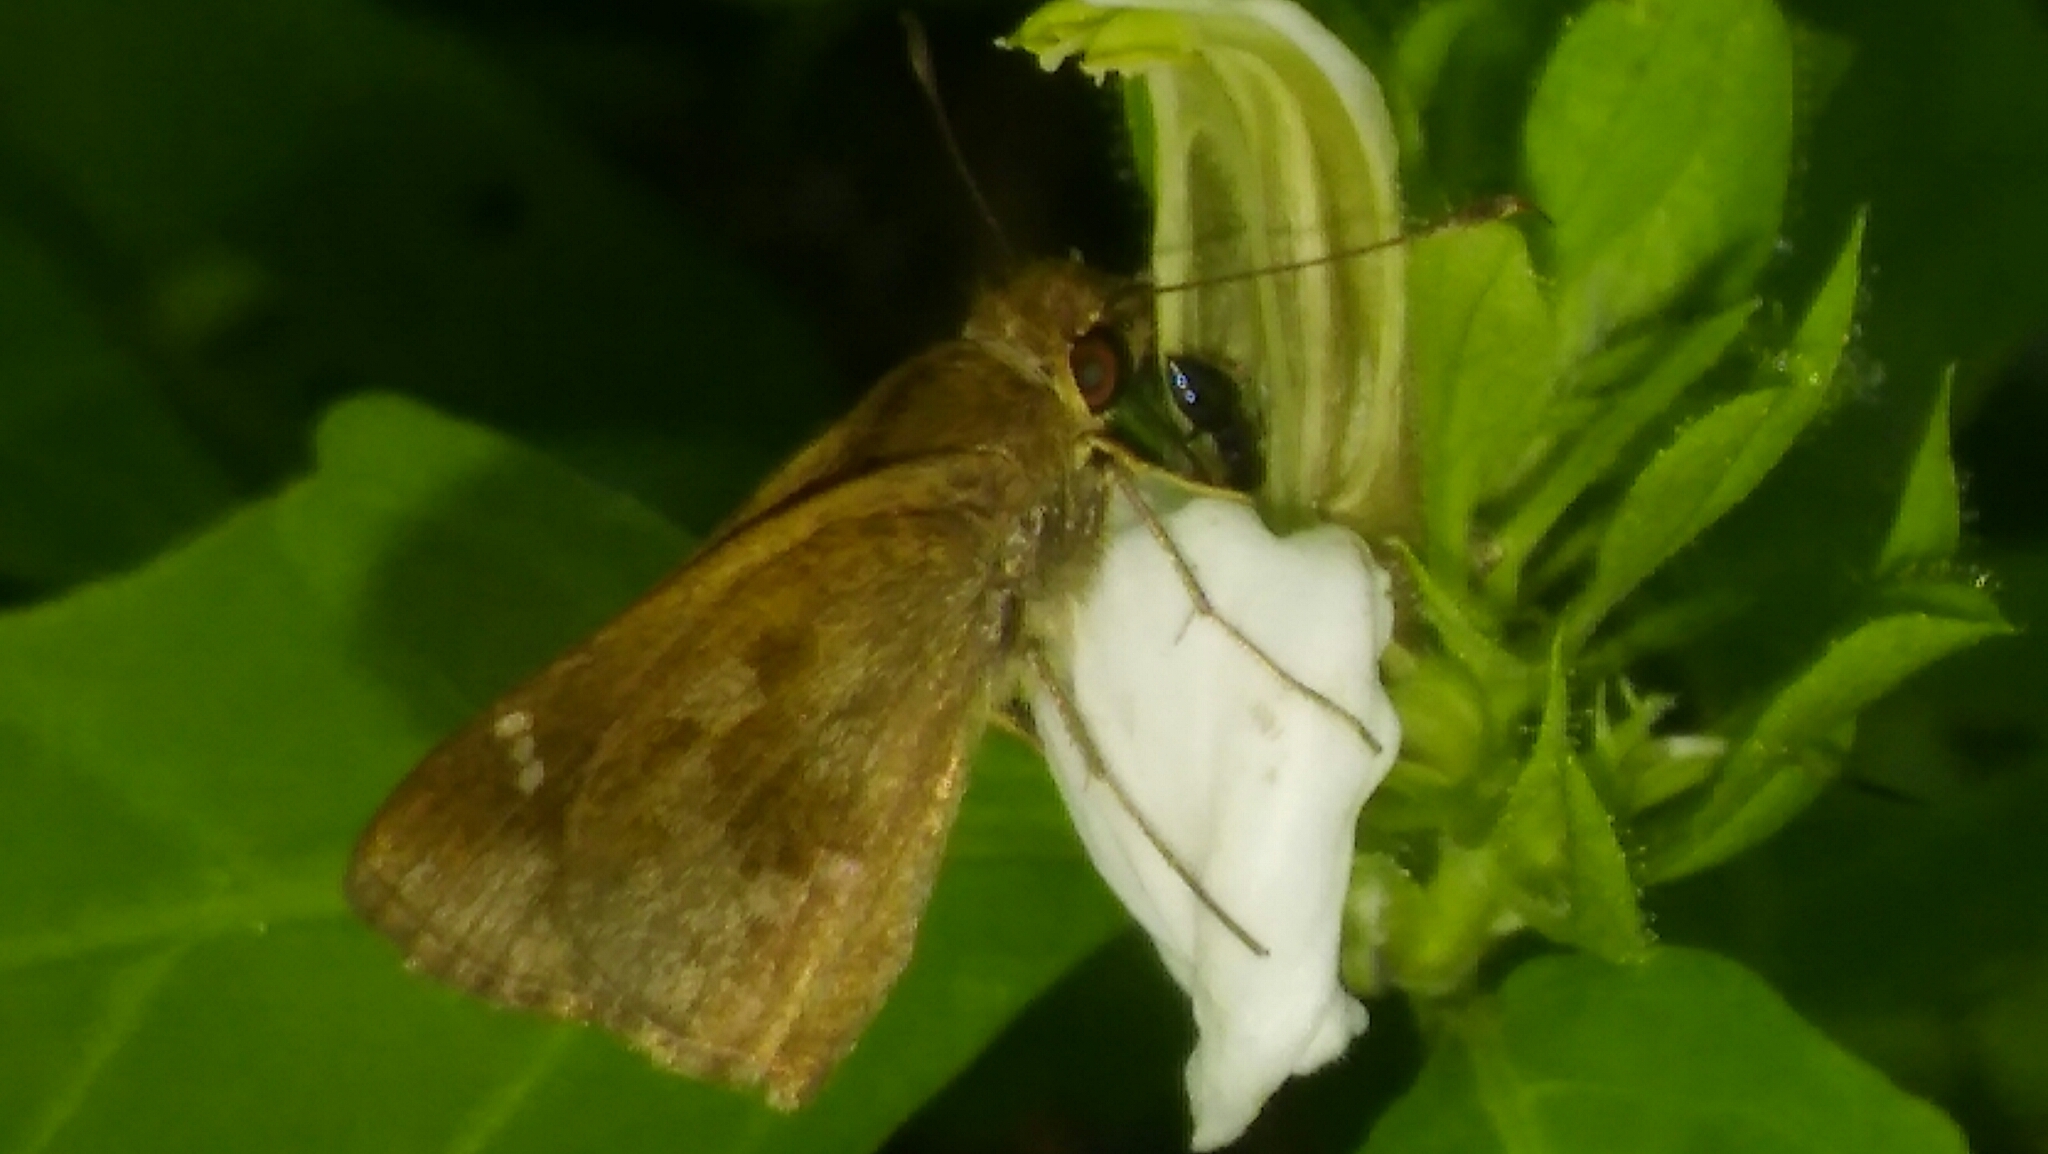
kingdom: Animalia
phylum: Arthropoda
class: Insecta
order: Lepidoptera
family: Hesperiidae
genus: Cymaenes
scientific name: Cymaenes
